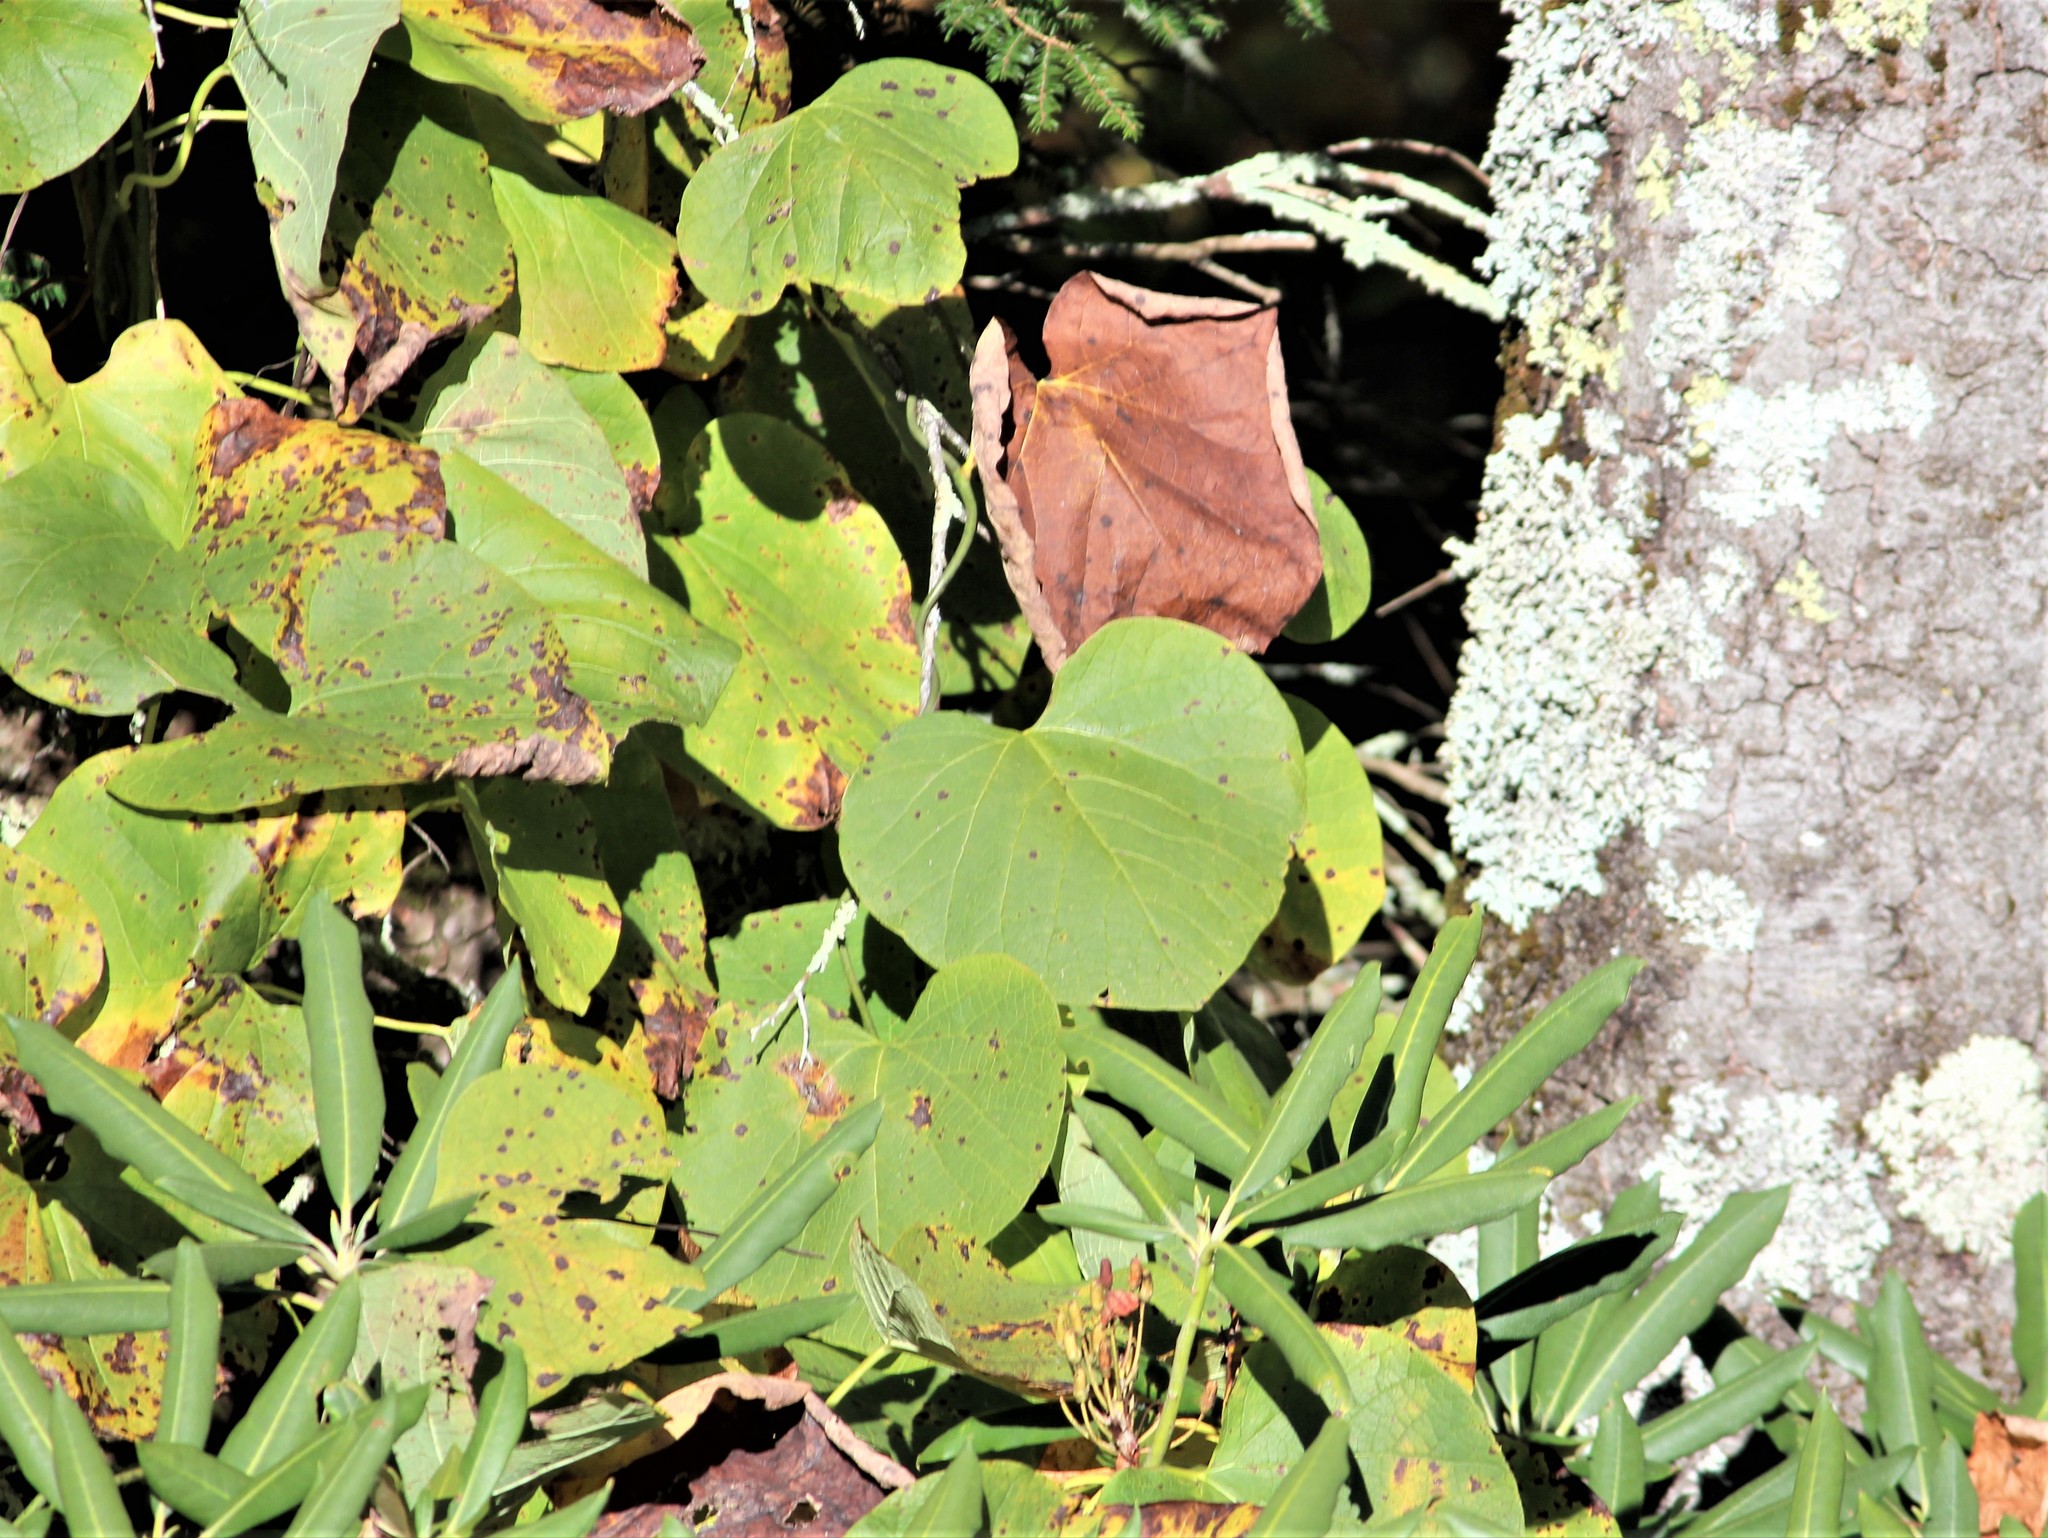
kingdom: Plantae
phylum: Tracheophyta
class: Magnoliopsida
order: Piperales
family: Aristolochiaceae
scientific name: Aristolochiaceae
